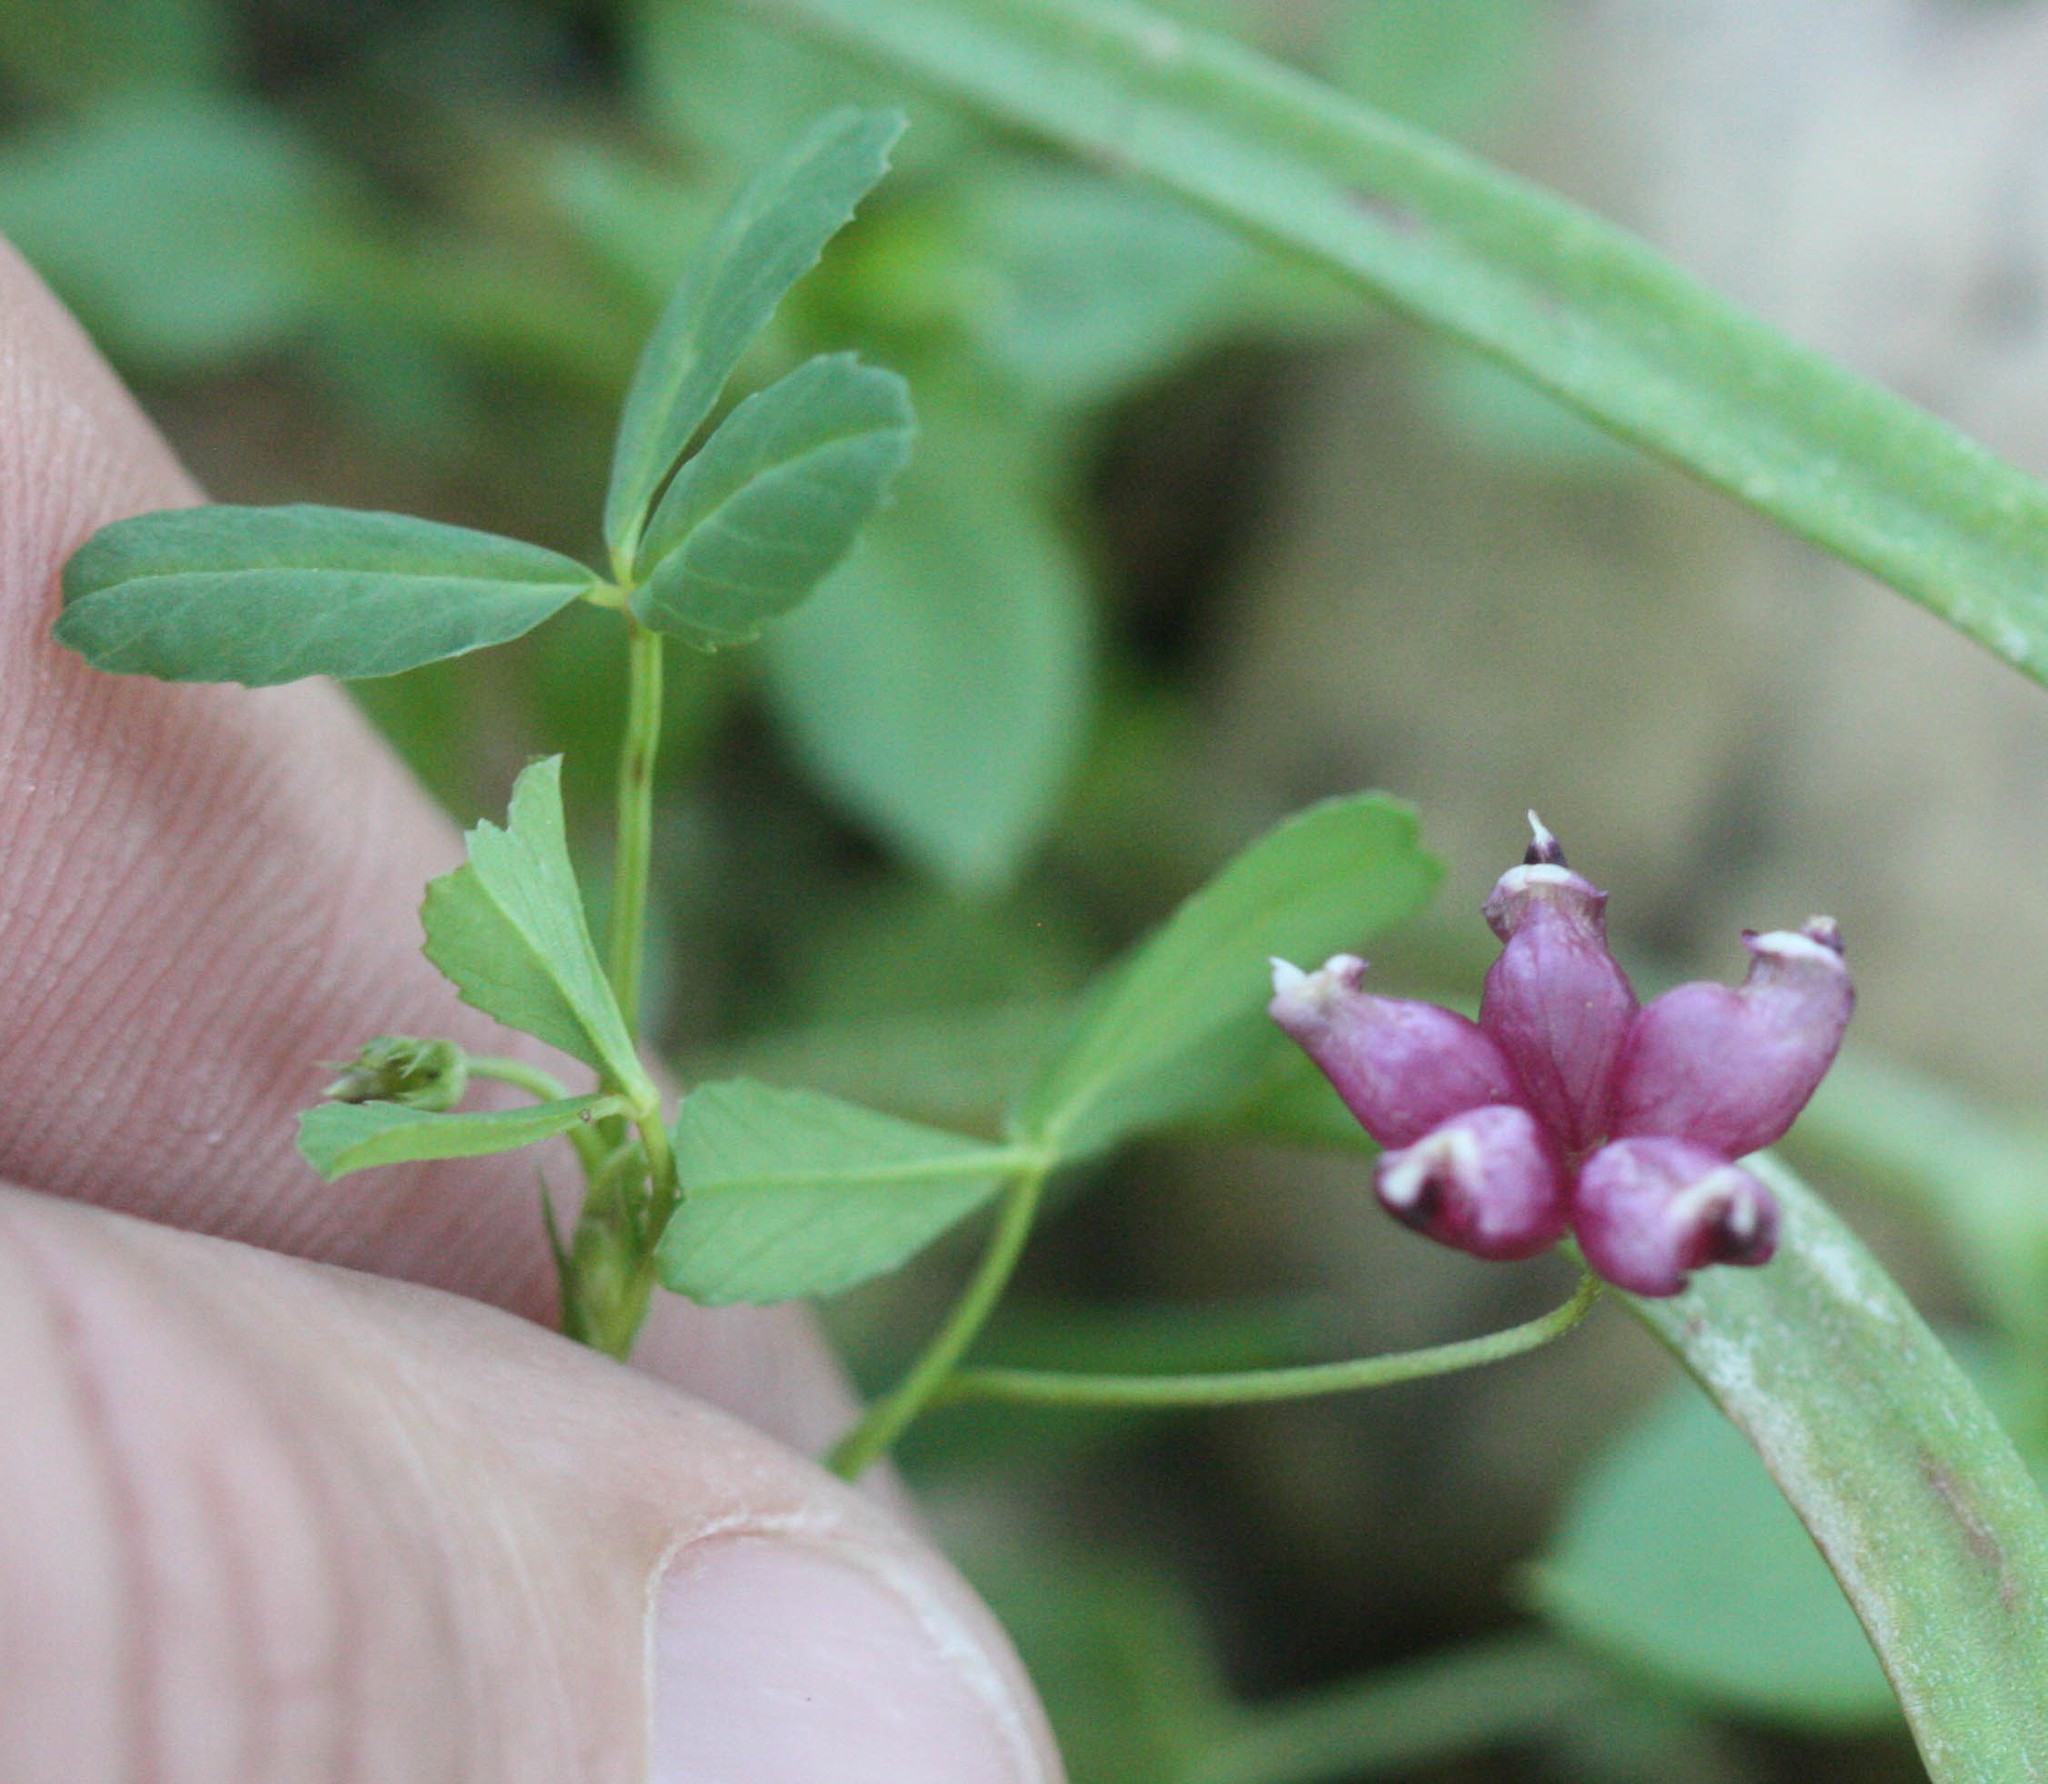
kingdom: Plantae
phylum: Tracheophyta
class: Magnoliopsida
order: Fabales
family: Fabaceae
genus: Trifolium
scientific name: Trifolium depauperatum
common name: Poverty clover
